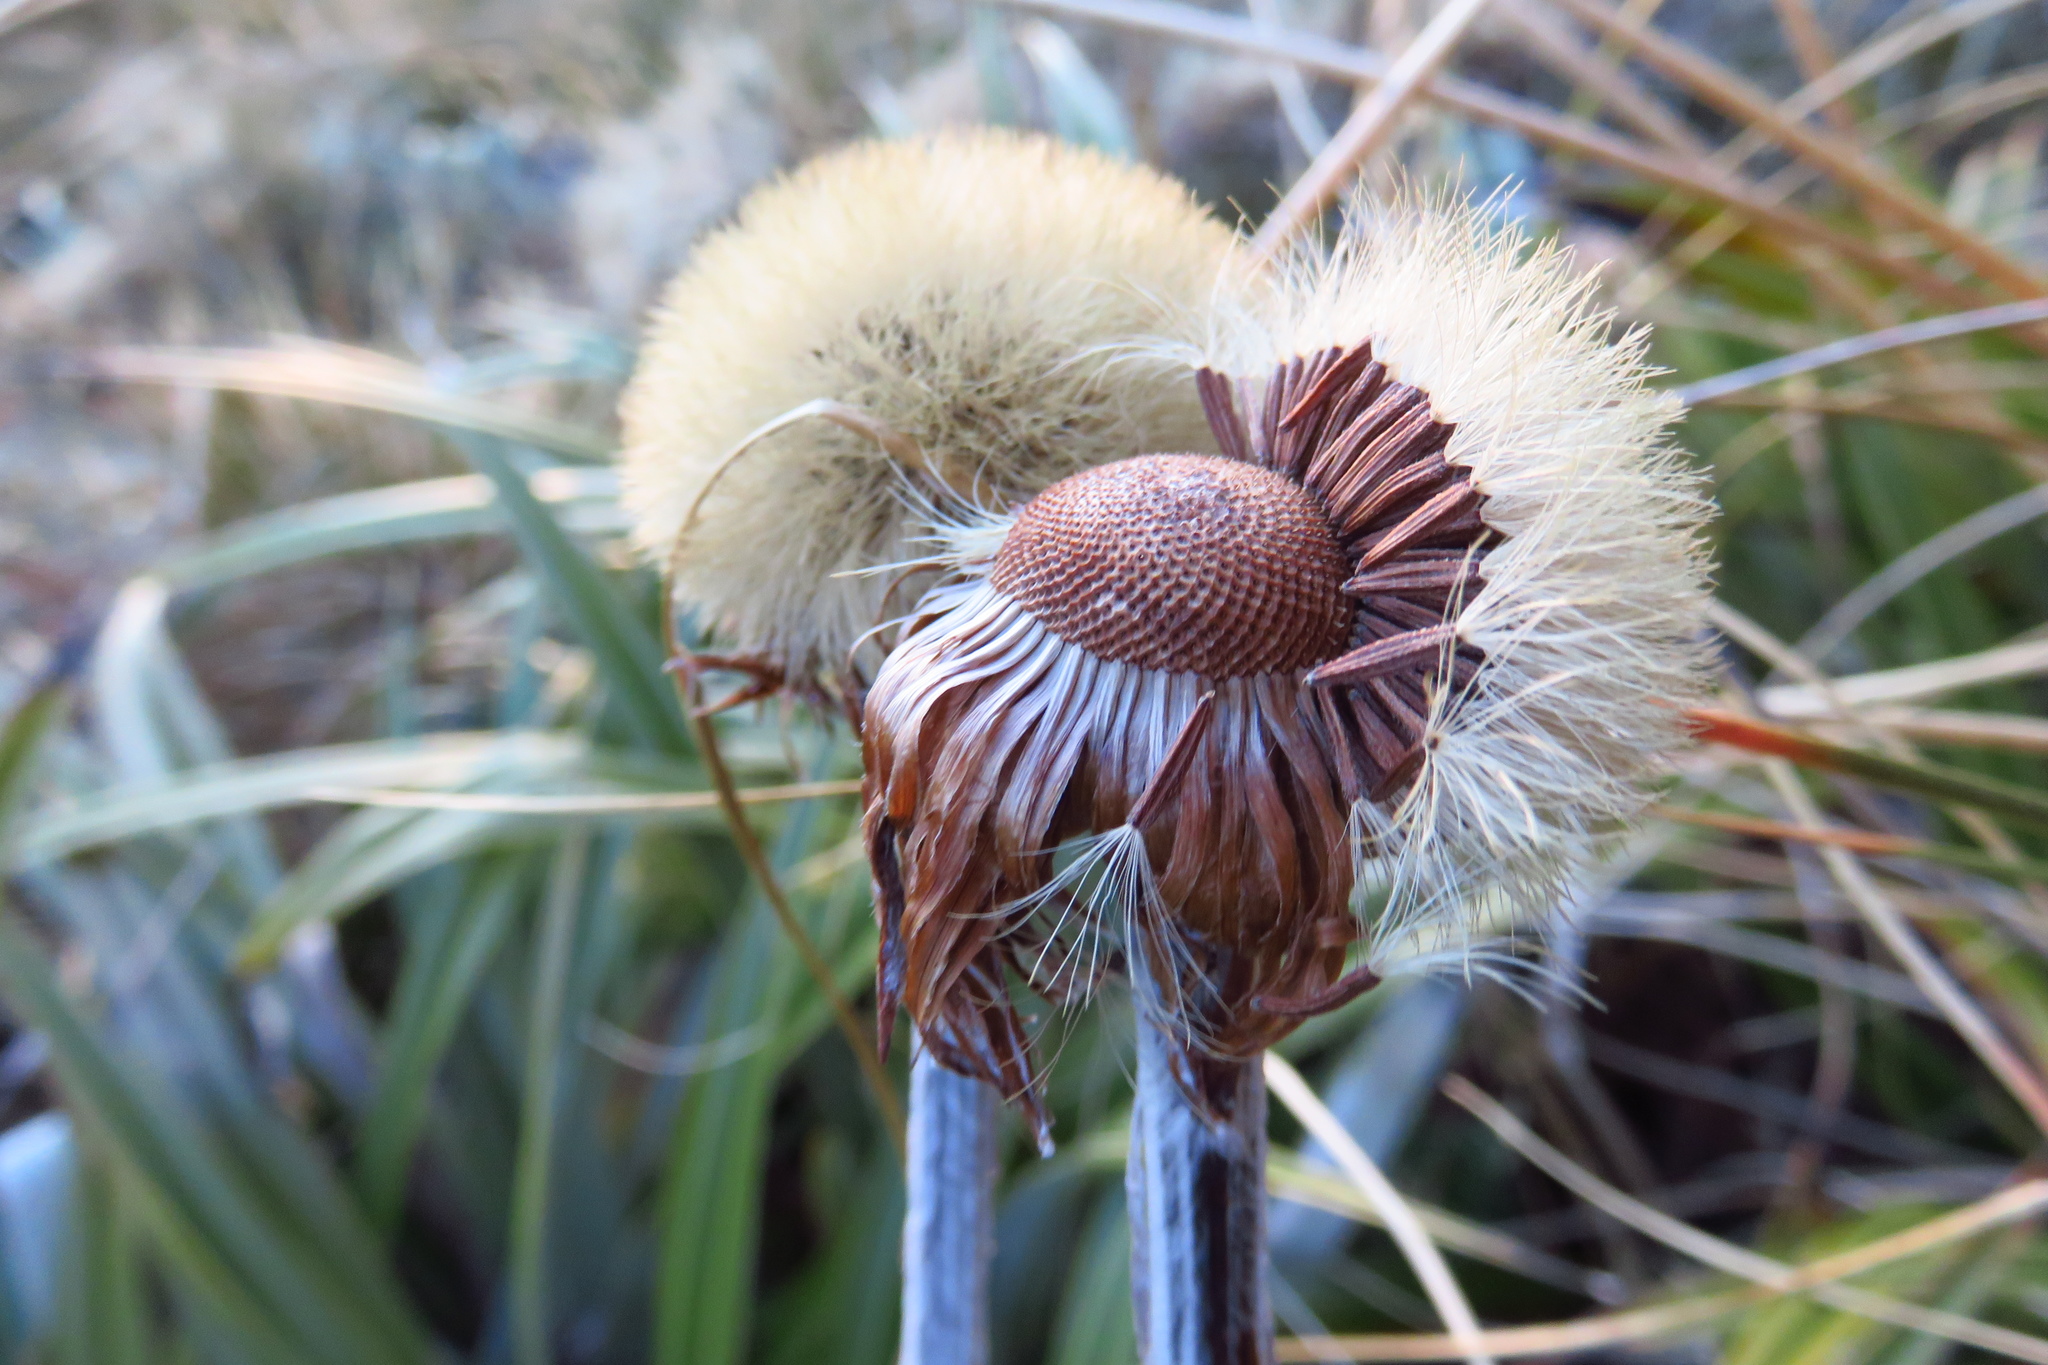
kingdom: Plantae
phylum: Tracheophyta
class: Magnoliopsida
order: Asterales
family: Asteraceae
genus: Celmisia
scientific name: Celmisia semicordata
